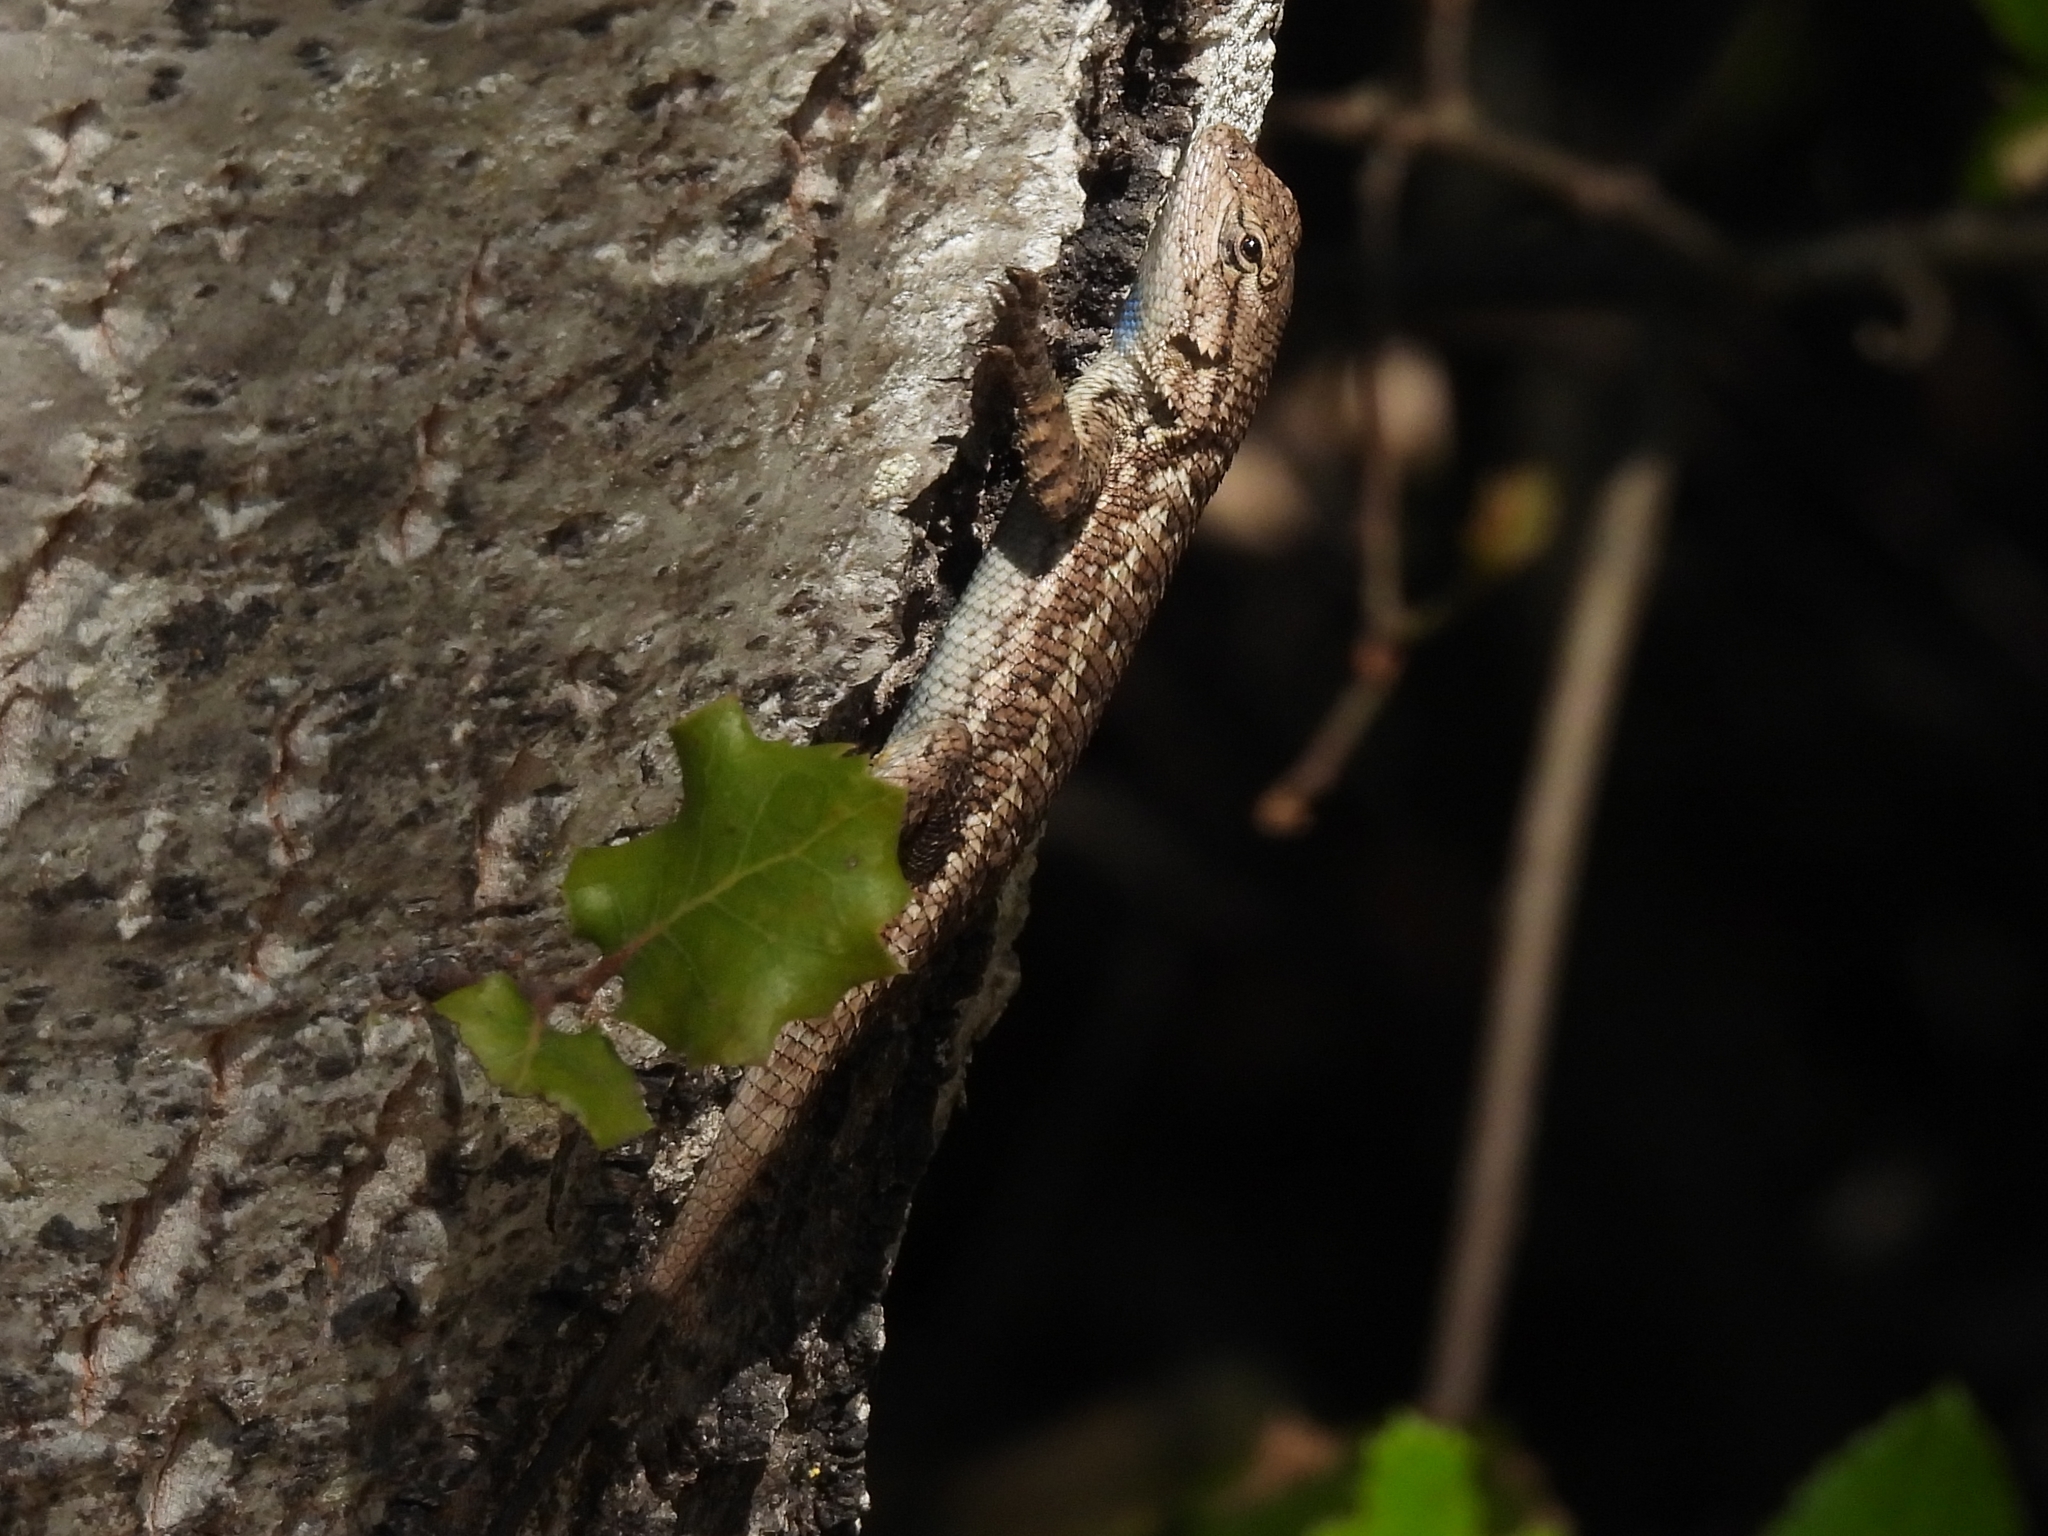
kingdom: Animalia
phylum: Chordata
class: Squamata
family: Phrynosomatidae
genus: Sceloporus
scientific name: Sceloporus occidentalis
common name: Western fence lizard
